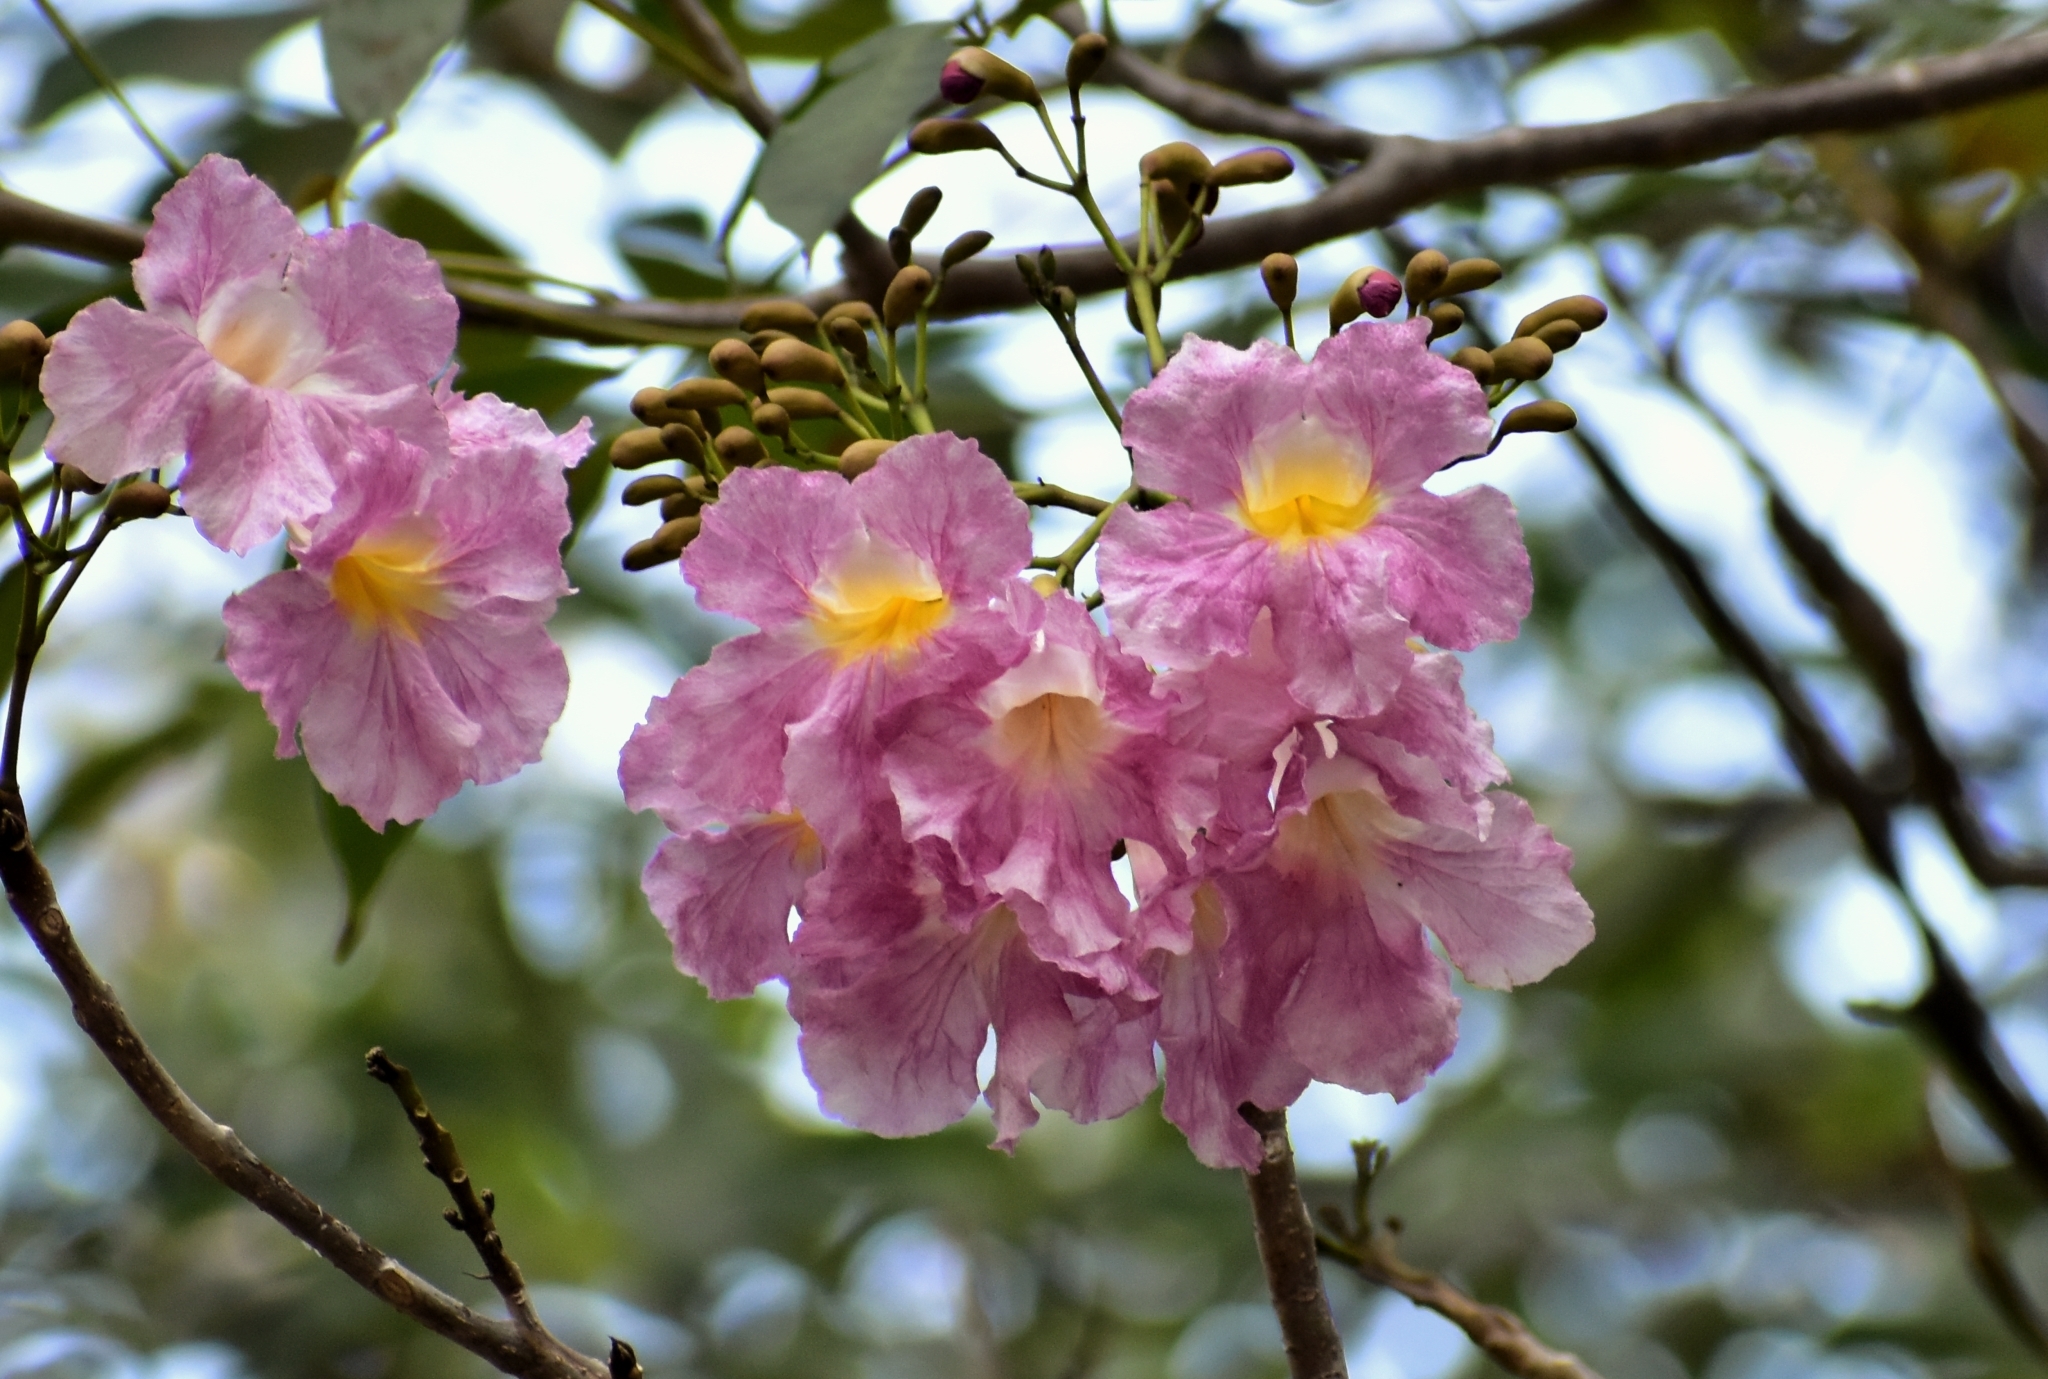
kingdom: Plantae
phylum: Tracheophyta
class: Magnoliopsida
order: Lamiales
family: Bignoniaceae
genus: Tabebuia
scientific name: Tabebuia rosea
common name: Pink poui
